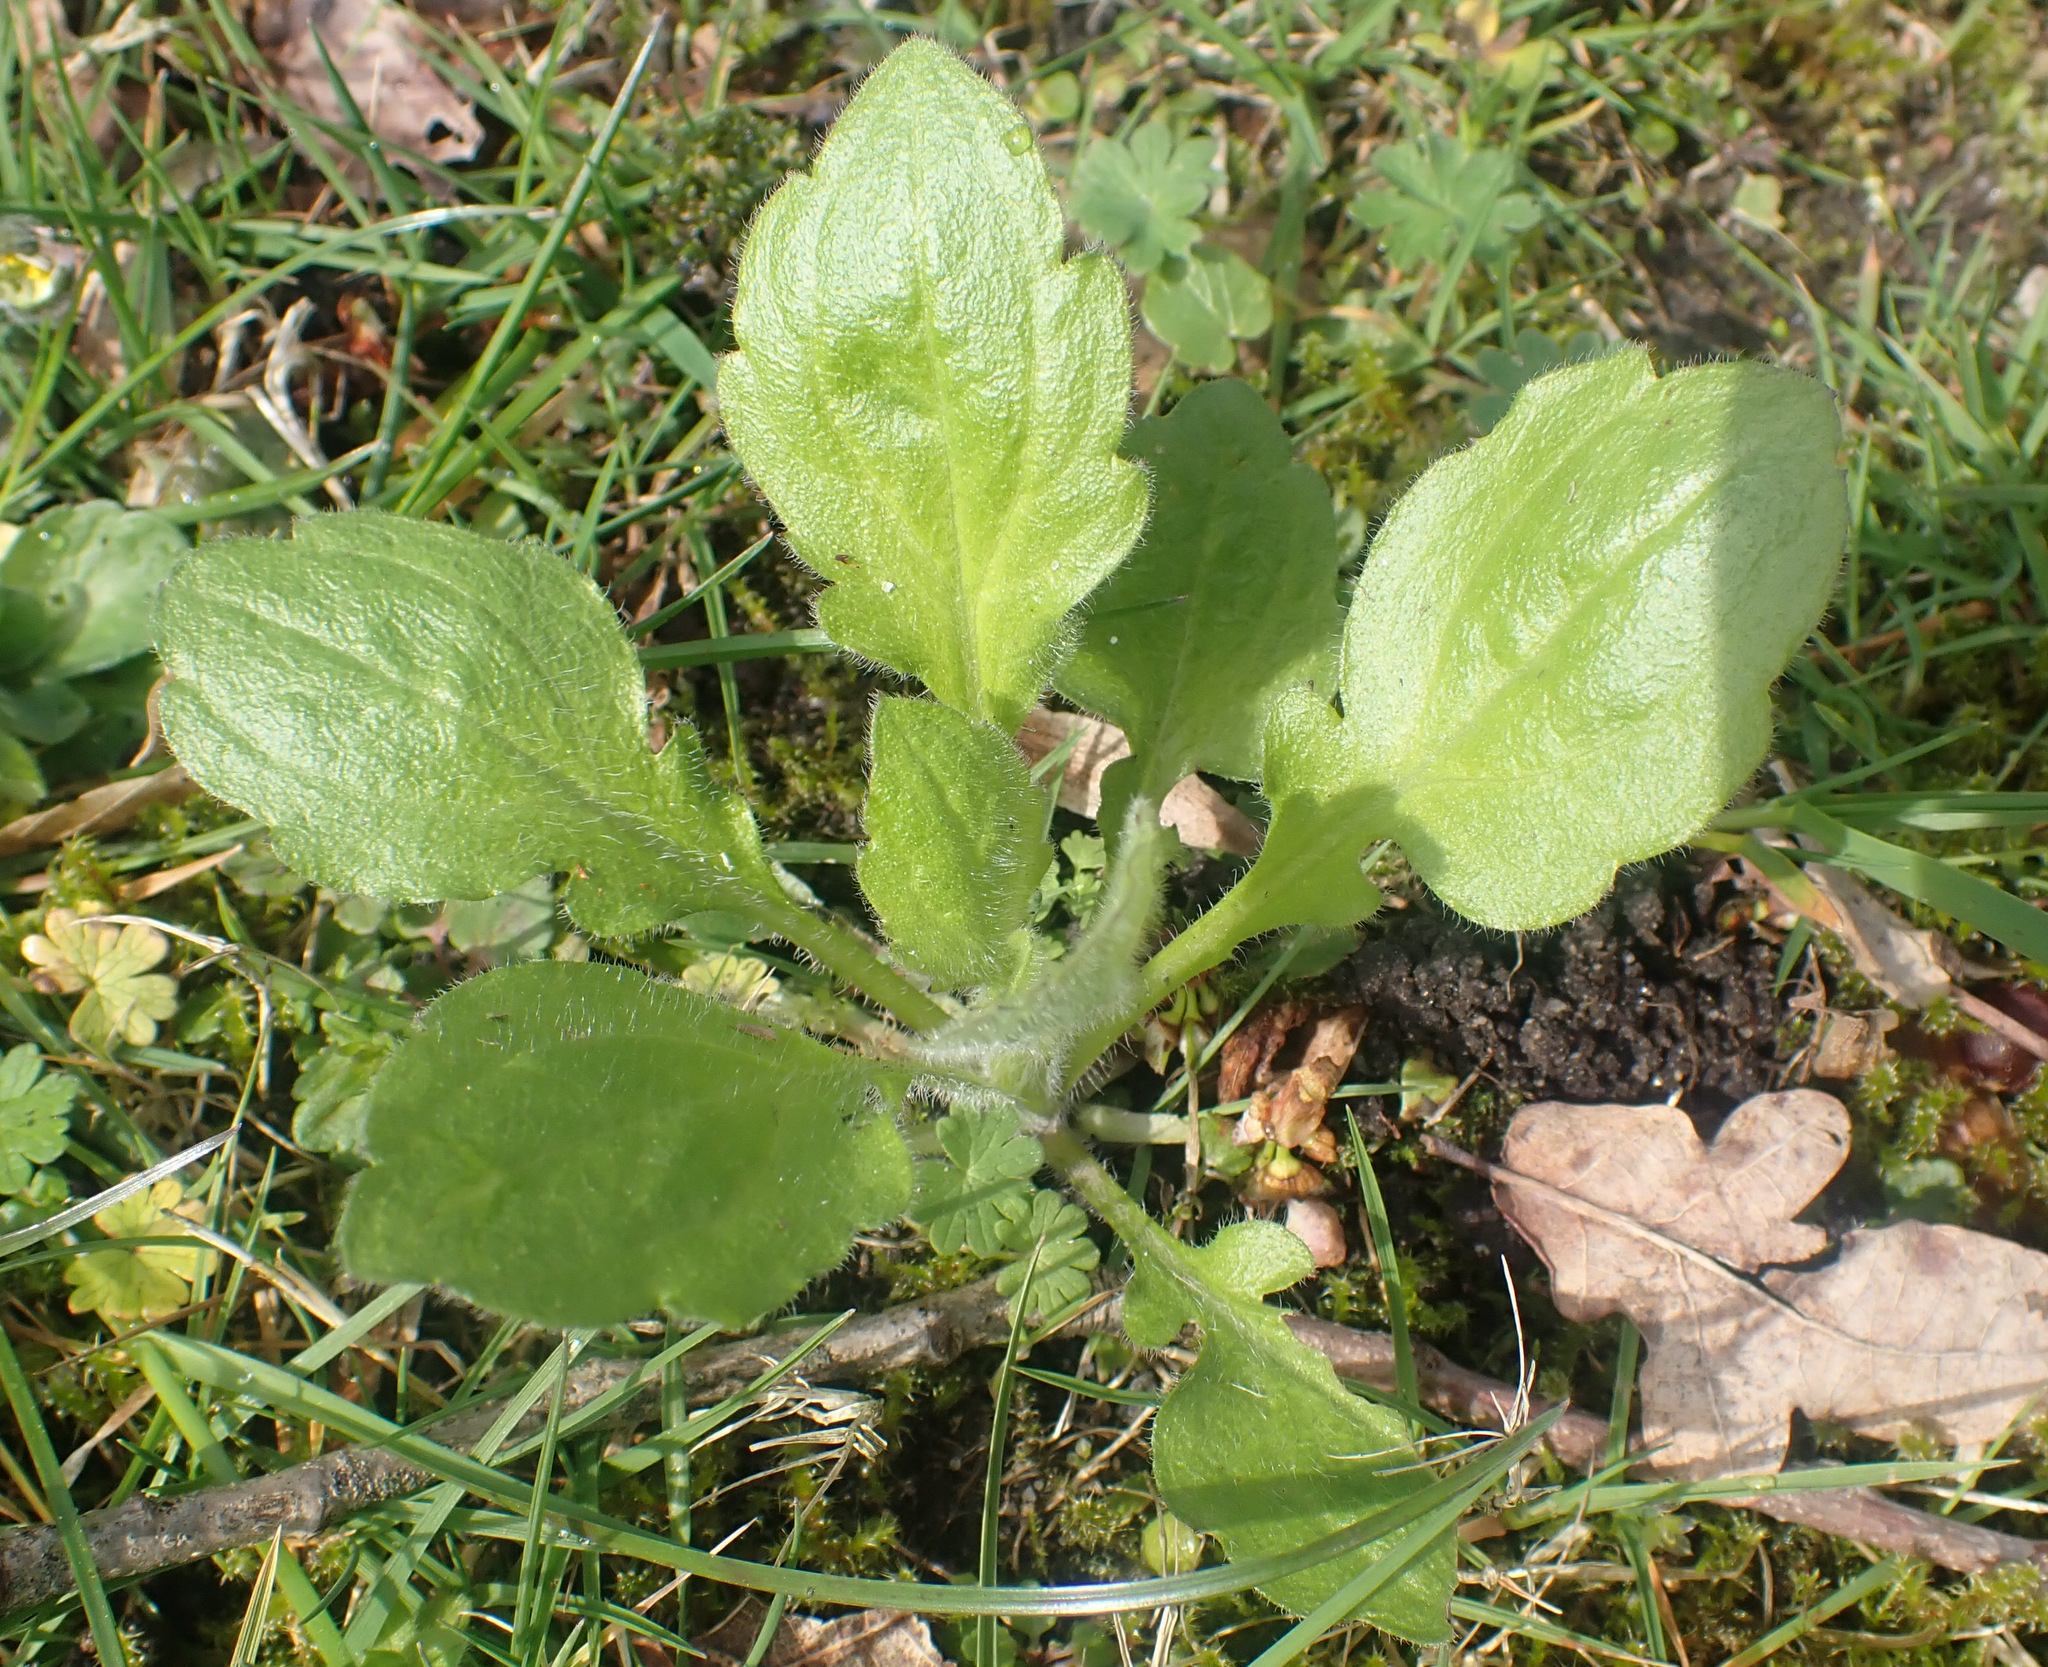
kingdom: Plantae
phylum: Tracheophyta
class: Magnoliopsida
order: Asterales
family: Asteraceae
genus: Erigeron
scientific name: Erigeron annuus
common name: Tall fleabane
